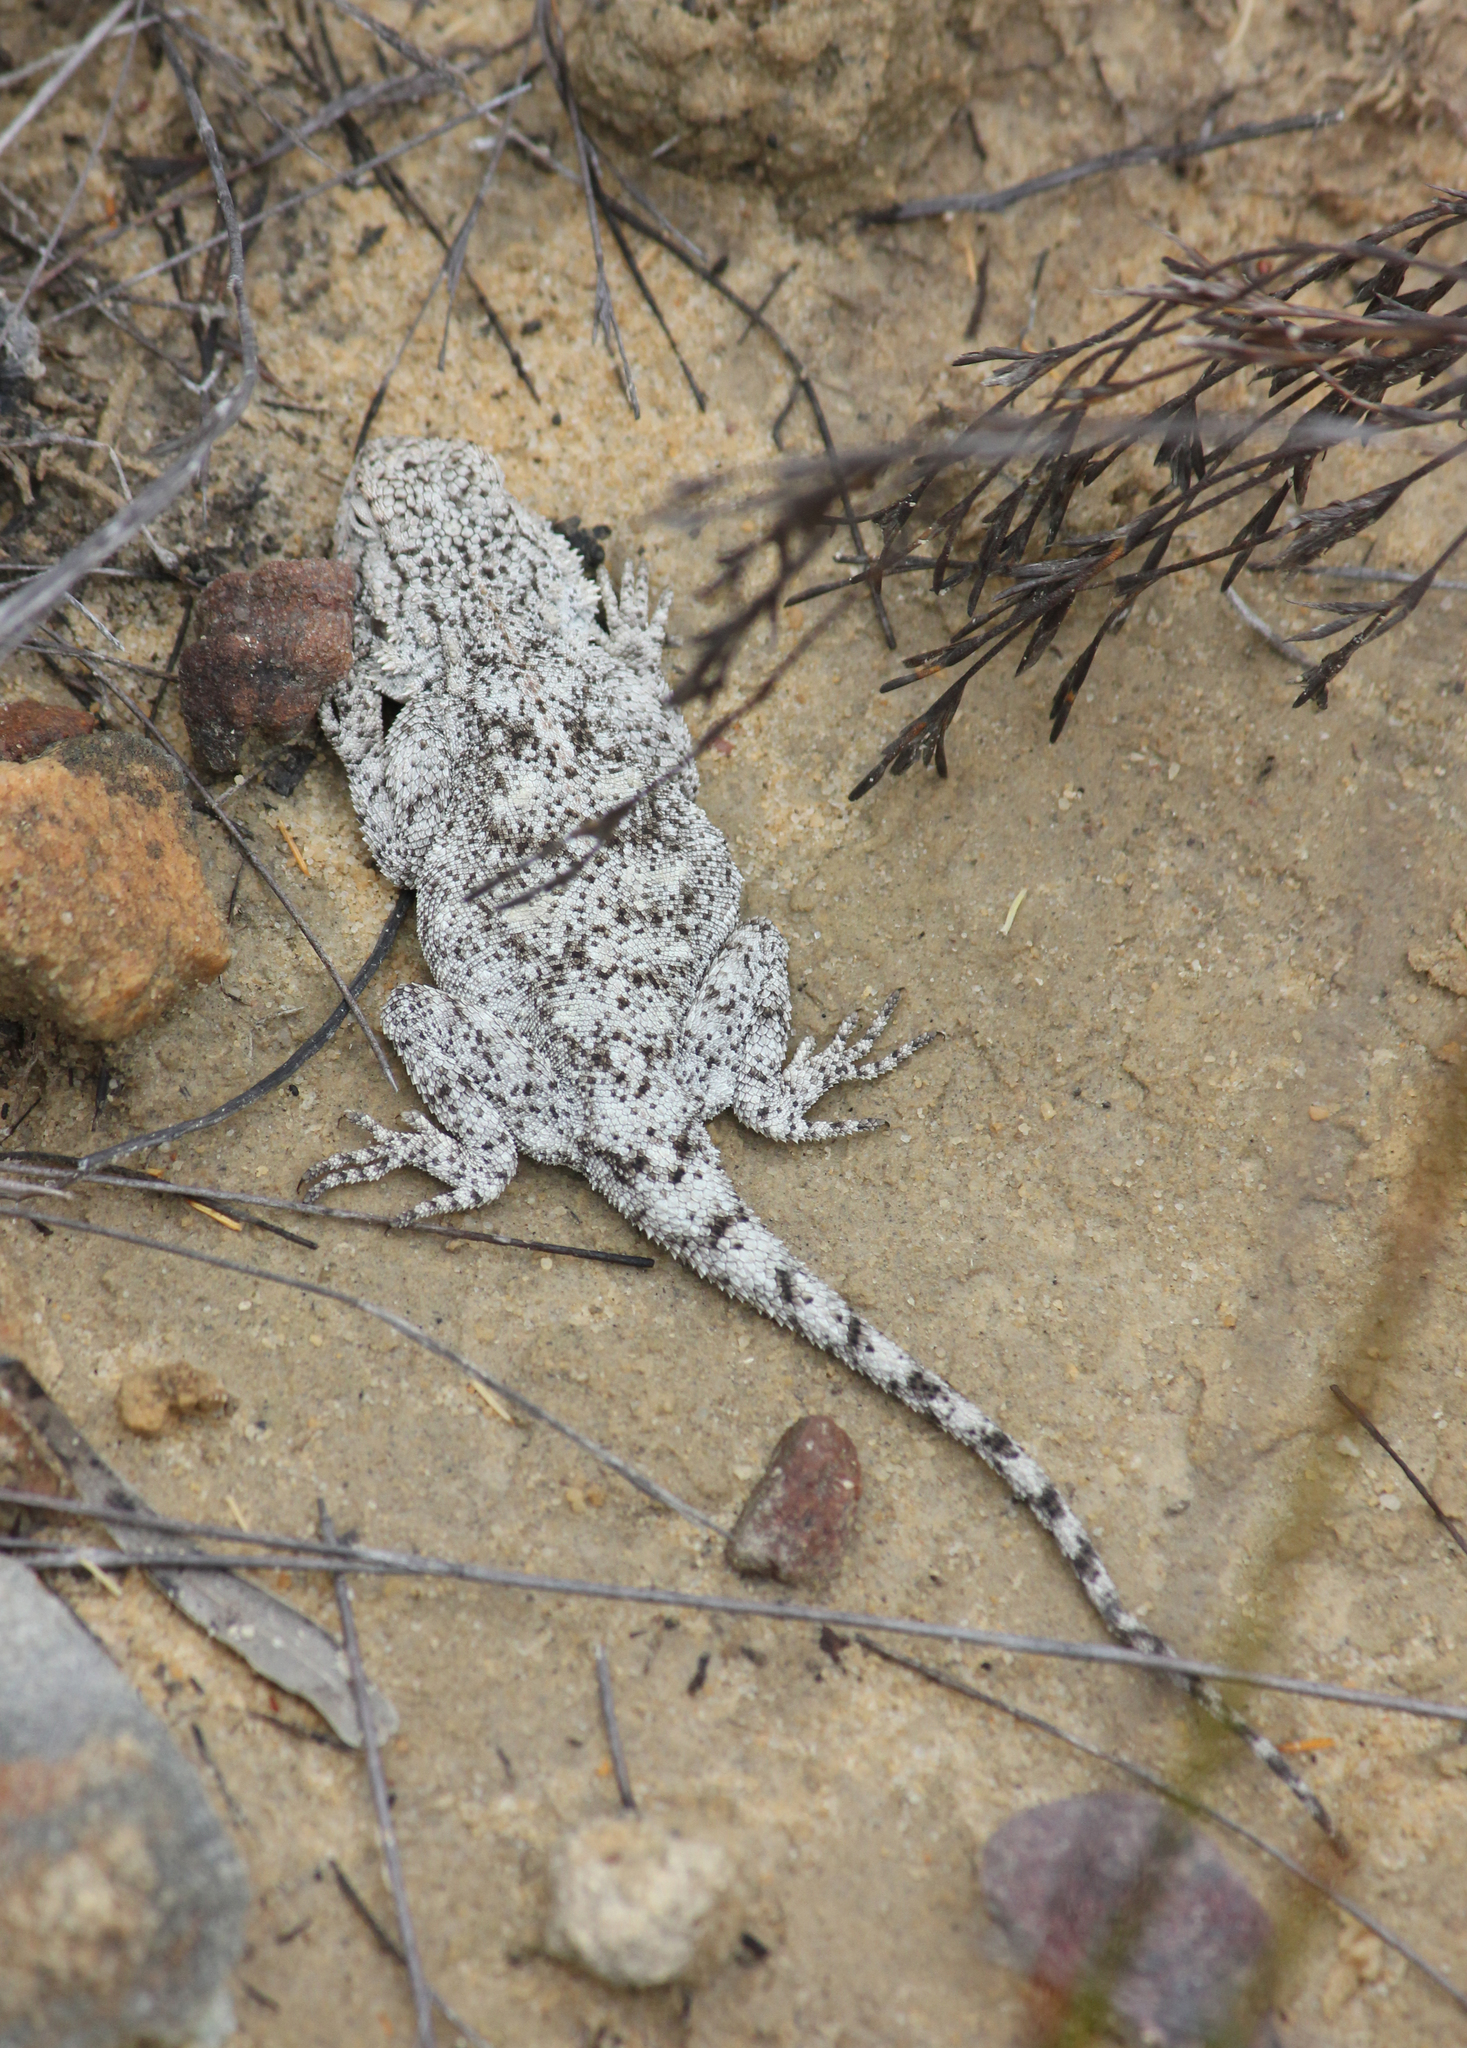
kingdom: Animalia
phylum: Chordata
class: Squamata
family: Agamidae
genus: Agama
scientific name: Agama atra
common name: Southern african rock agama
